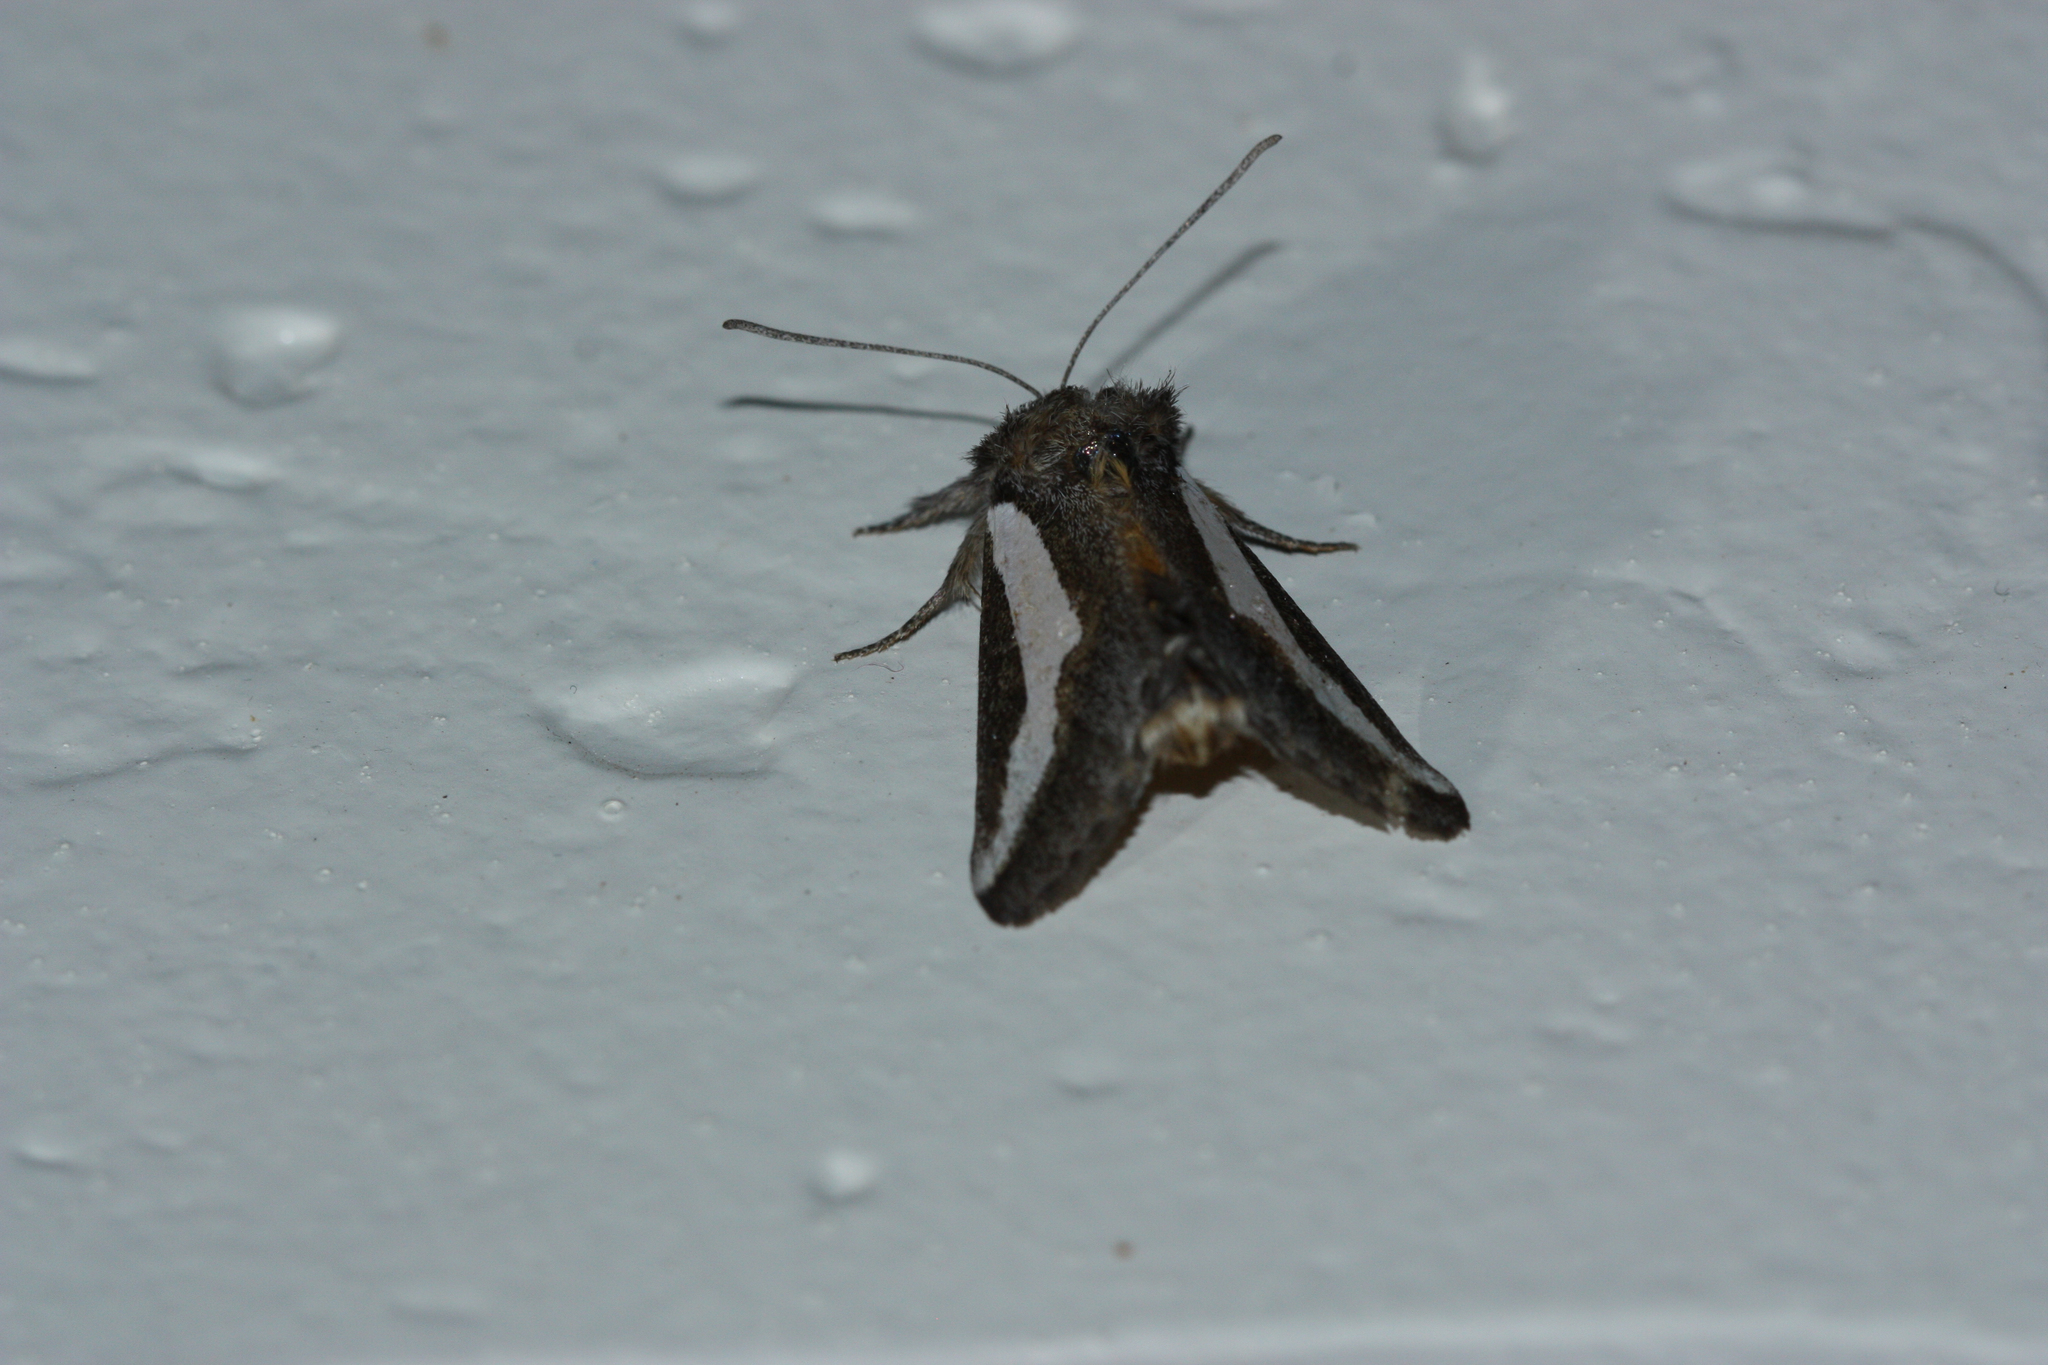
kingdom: Animalia
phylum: Arthropoda
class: Insecta
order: Lepidoptera
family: Noctuidae
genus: Euscirrhopterus
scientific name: Euscirrhopterus cosyra
